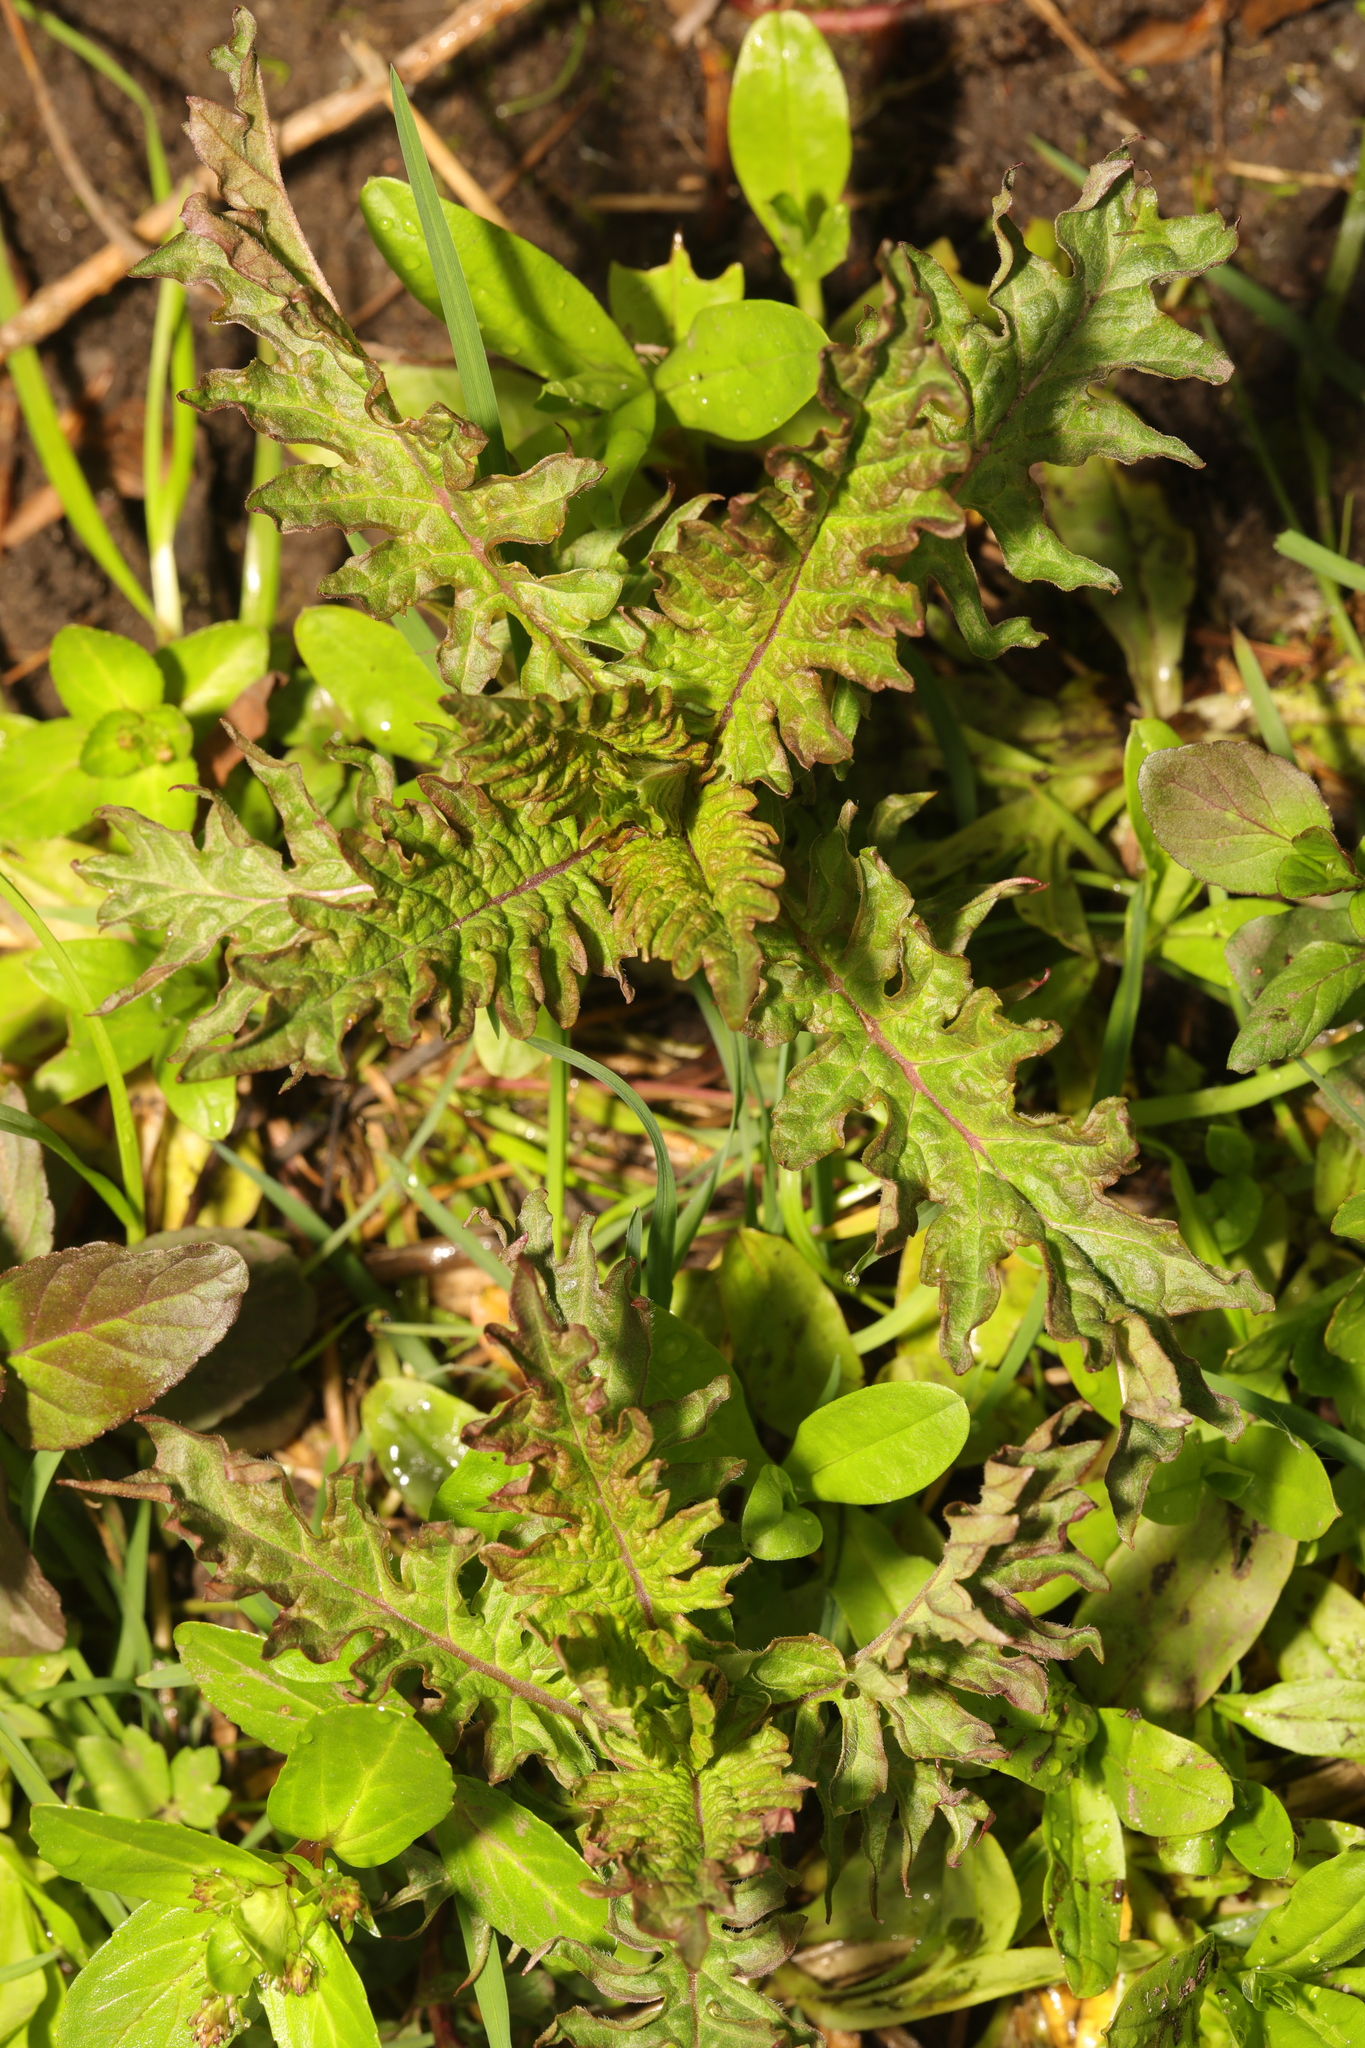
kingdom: Plantae
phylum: Tracheophyta
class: Magnoliopsida
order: Lamiales
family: Lamiaceae
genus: Lycopus
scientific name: Lycopus europaeus
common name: European bugleweed
